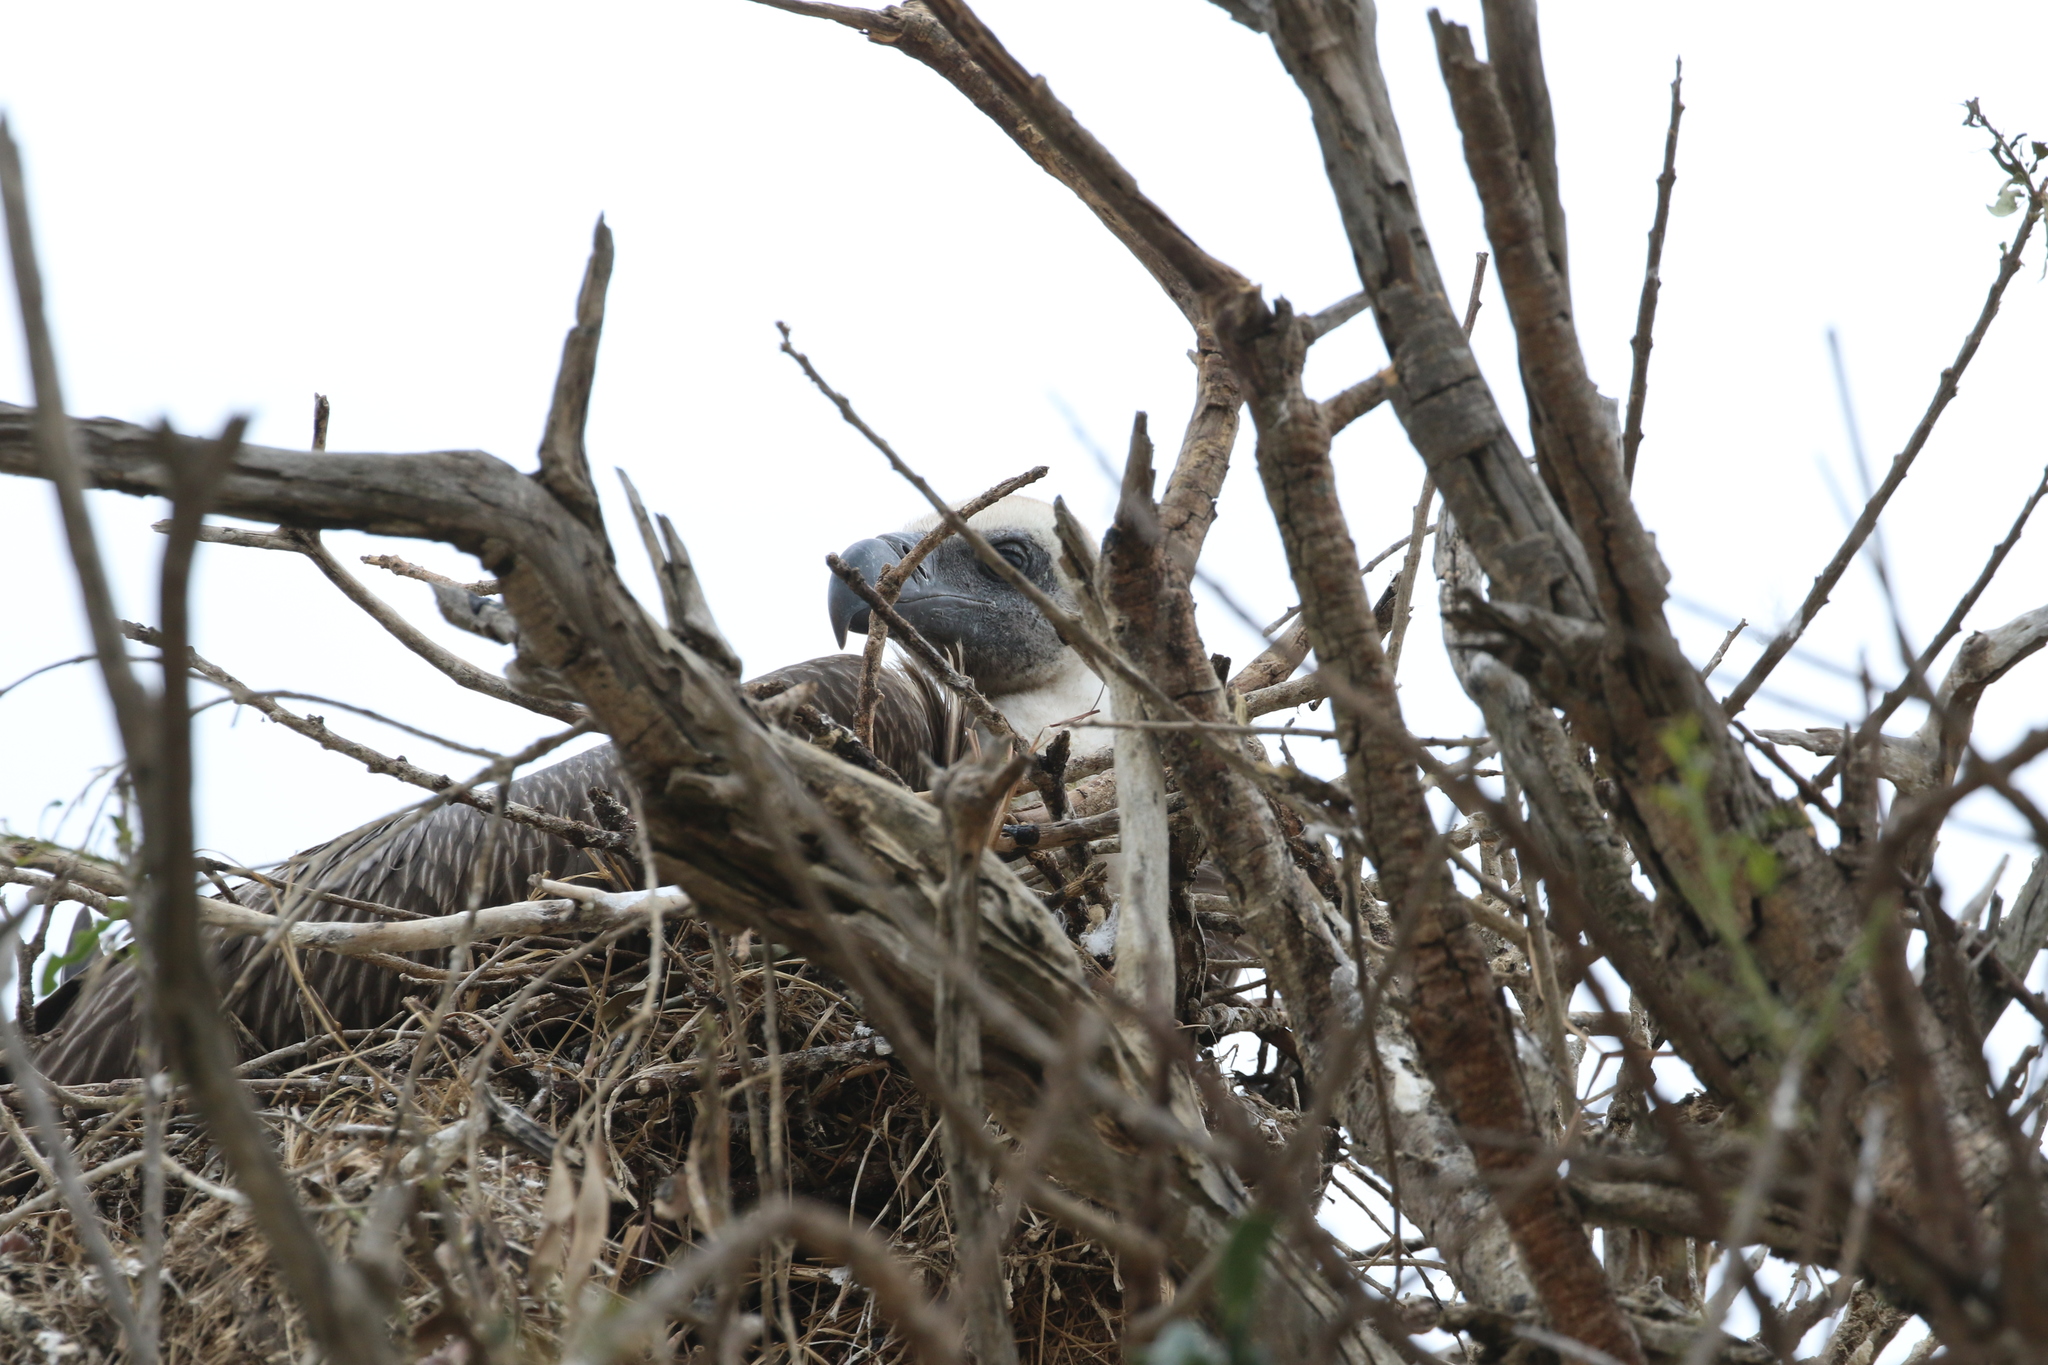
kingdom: Animalia
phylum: Chordata
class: Aves
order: Accipitriformes
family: Accipitridae
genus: Gyps
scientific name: Gyps africanus
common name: White-backed vulture
